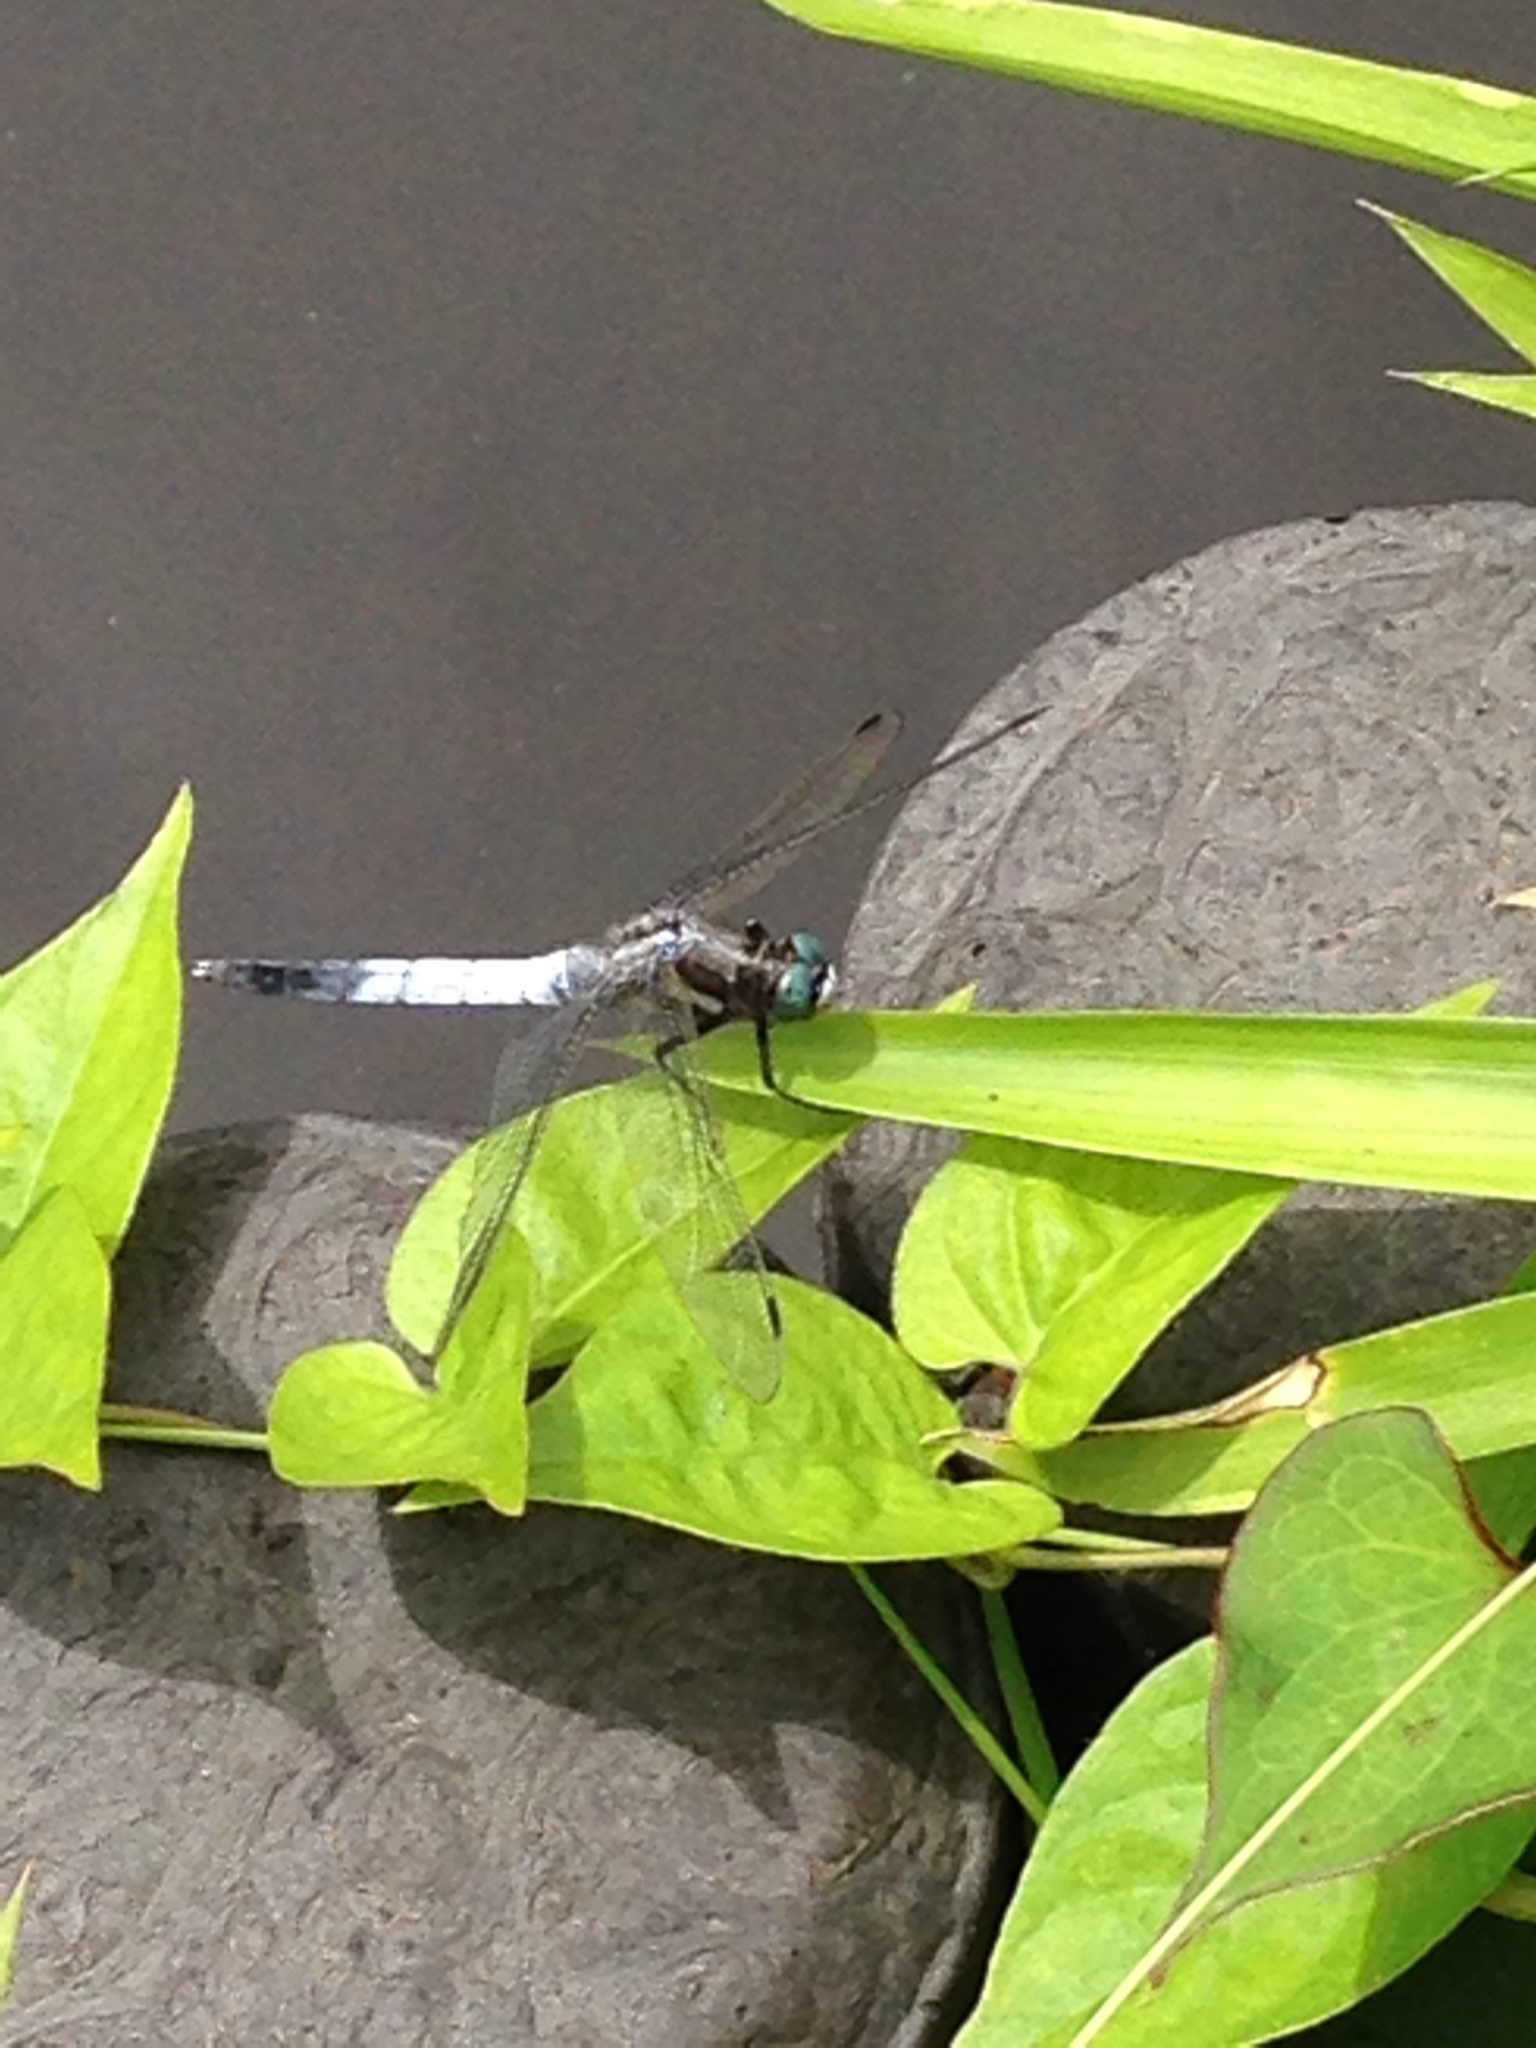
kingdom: Animalia
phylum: Arthropoda
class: Insecta
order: Odonata
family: Libellulidae
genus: Orthetrum
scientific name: Orthetrum albistylum
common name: White-tailed skimmer
